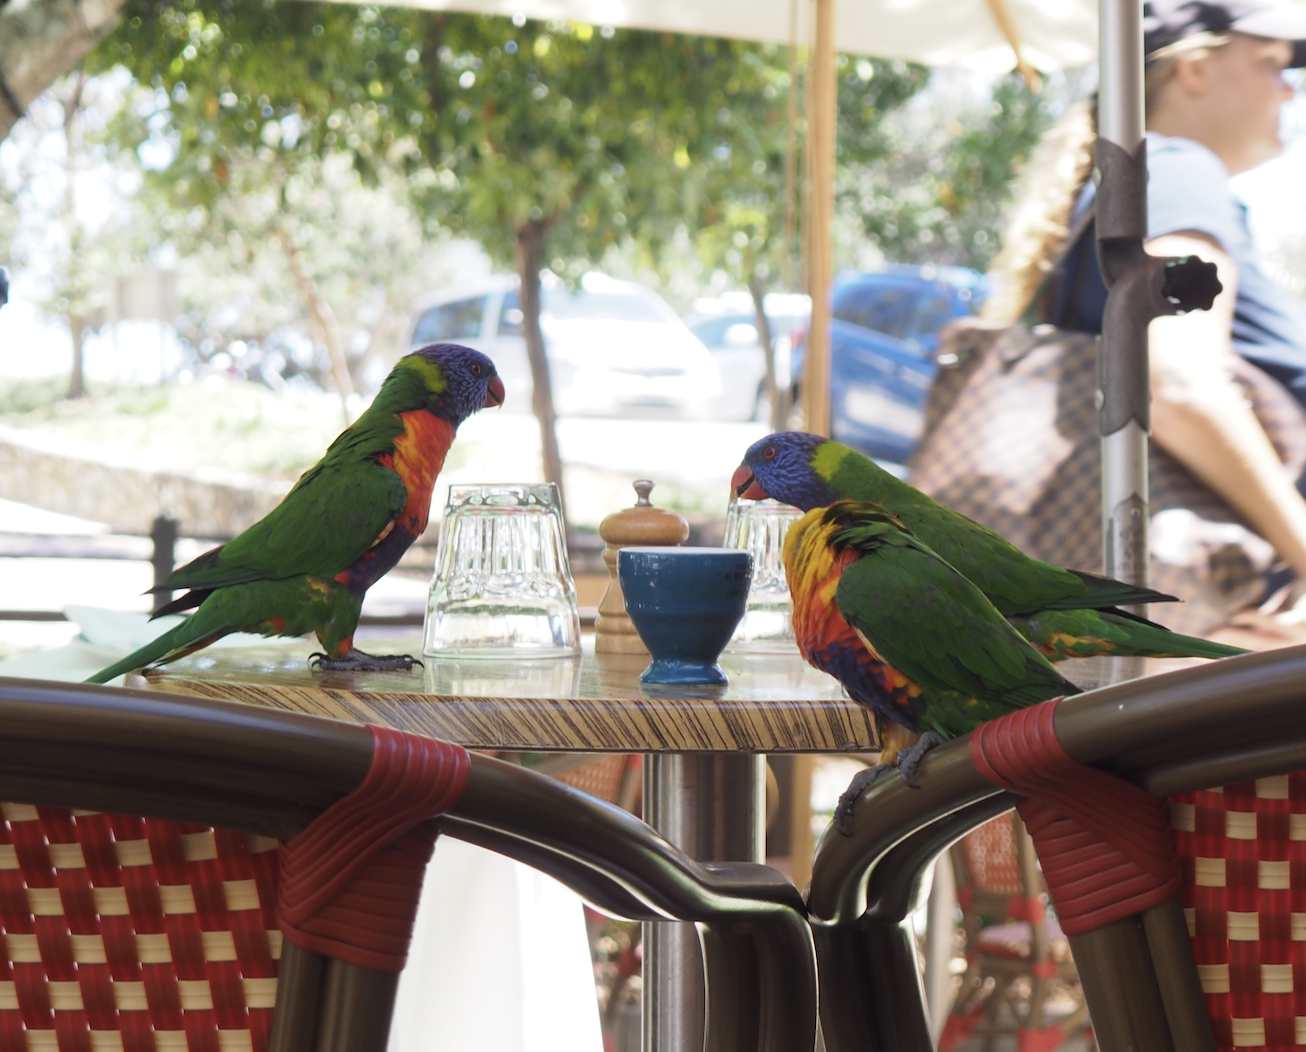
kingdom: Animalia
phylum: Chordata
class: Aves
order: Psittaciformes
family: Psittacidae
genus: Trichoglossus
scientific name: Trichoglossus haematodus
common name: Coconut lorikeet
